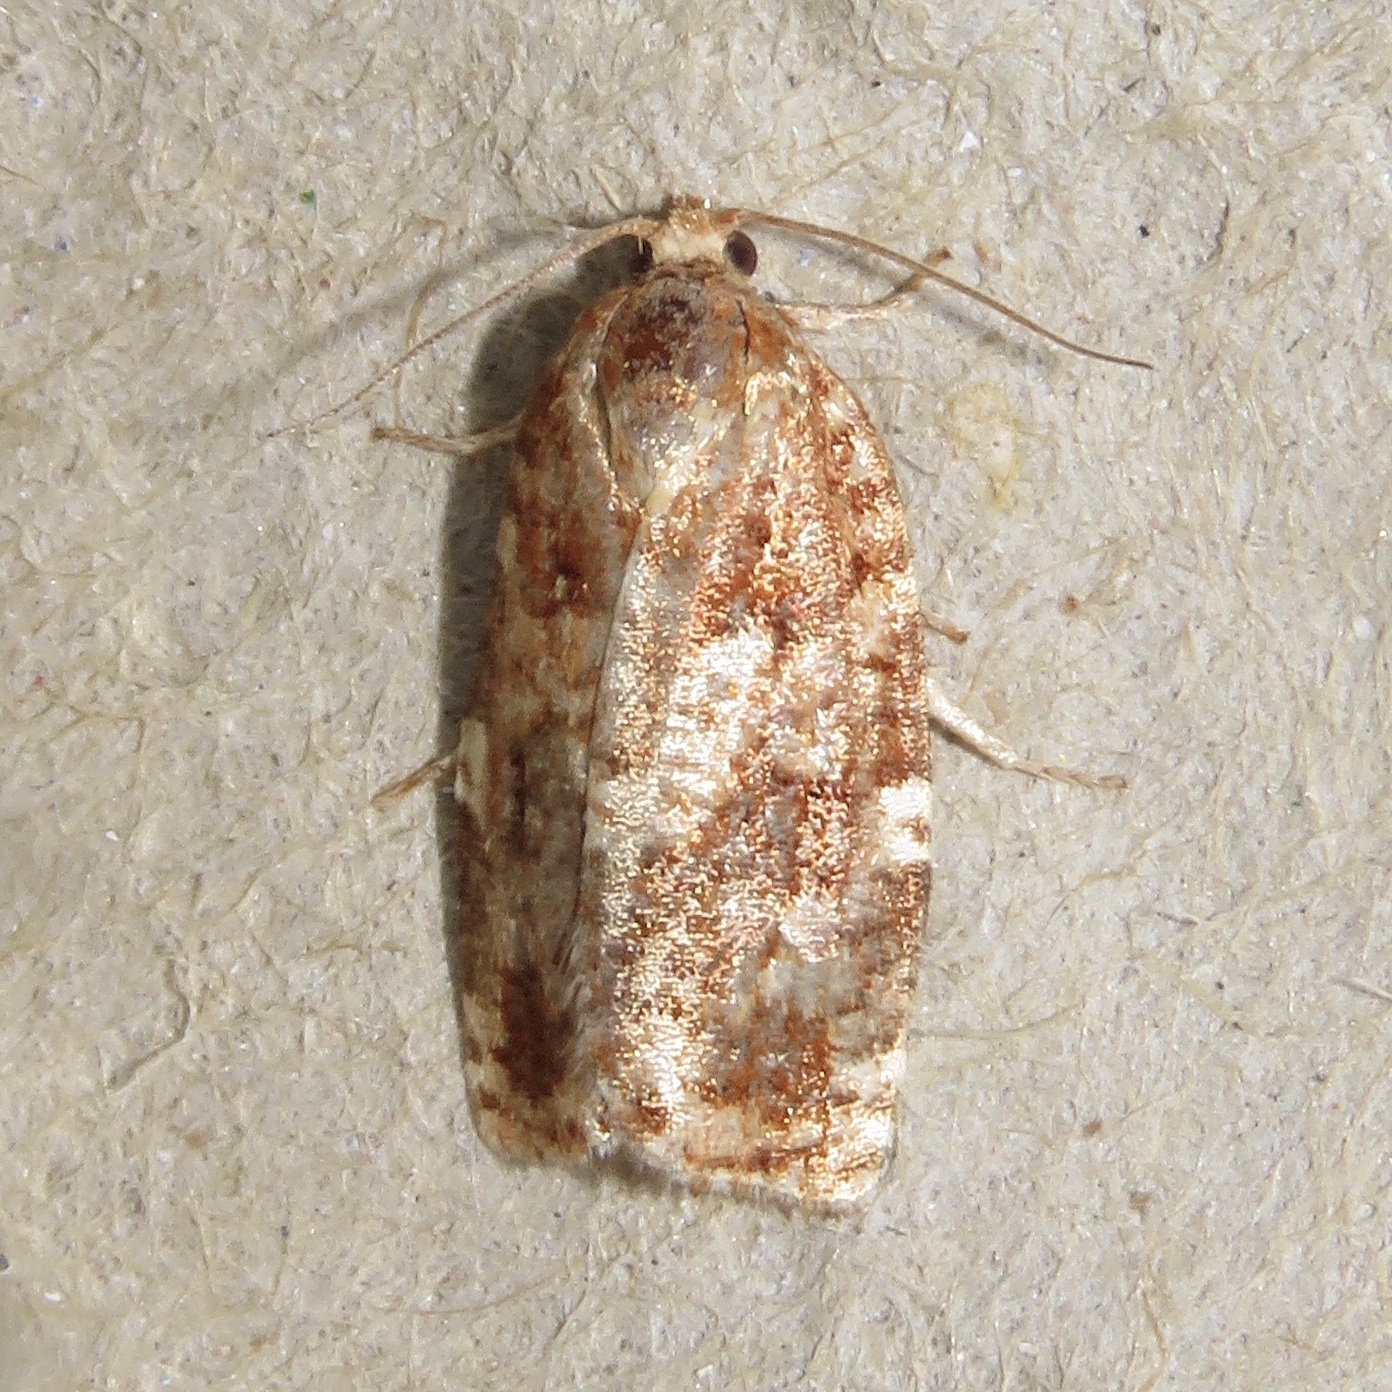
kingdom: Animalia
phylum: Arthropoda
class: Insecta
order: Lepidoptera
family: Tortricidae
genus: Choristoneura
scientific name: Choristoneura pinus
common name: Jack pine budworm
